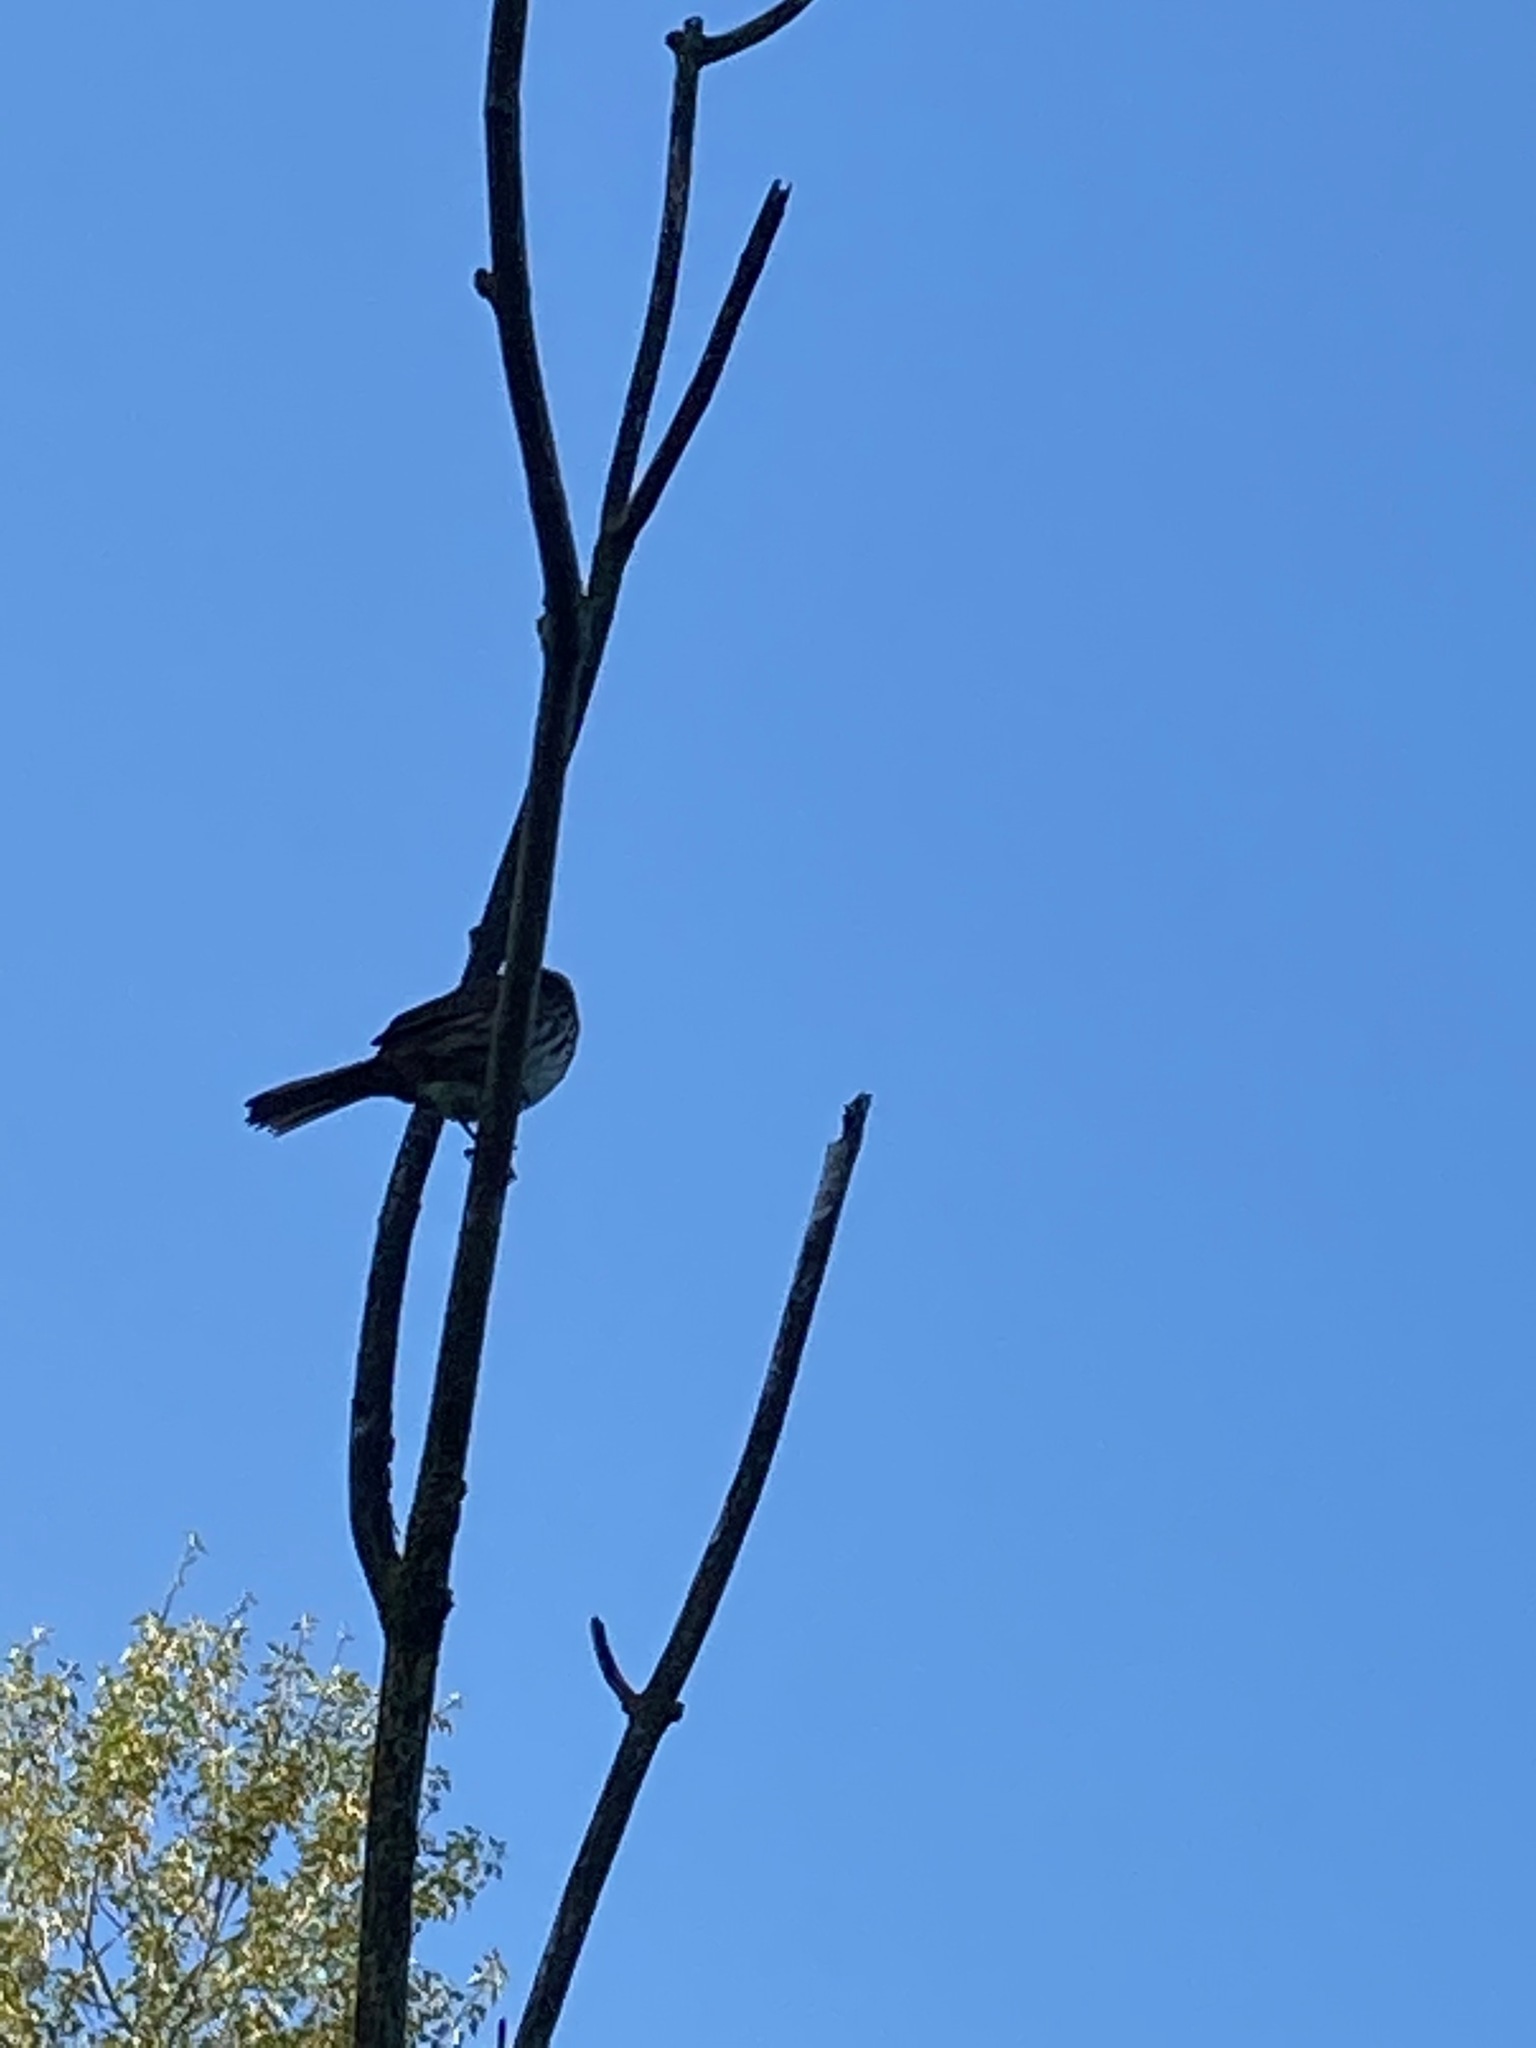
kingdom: Animalia
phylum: Chordata
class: Aves
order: Passeriformes
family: Passerellidae
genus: Melospiza
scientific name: Melospiza melodia
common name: Song sparrow
